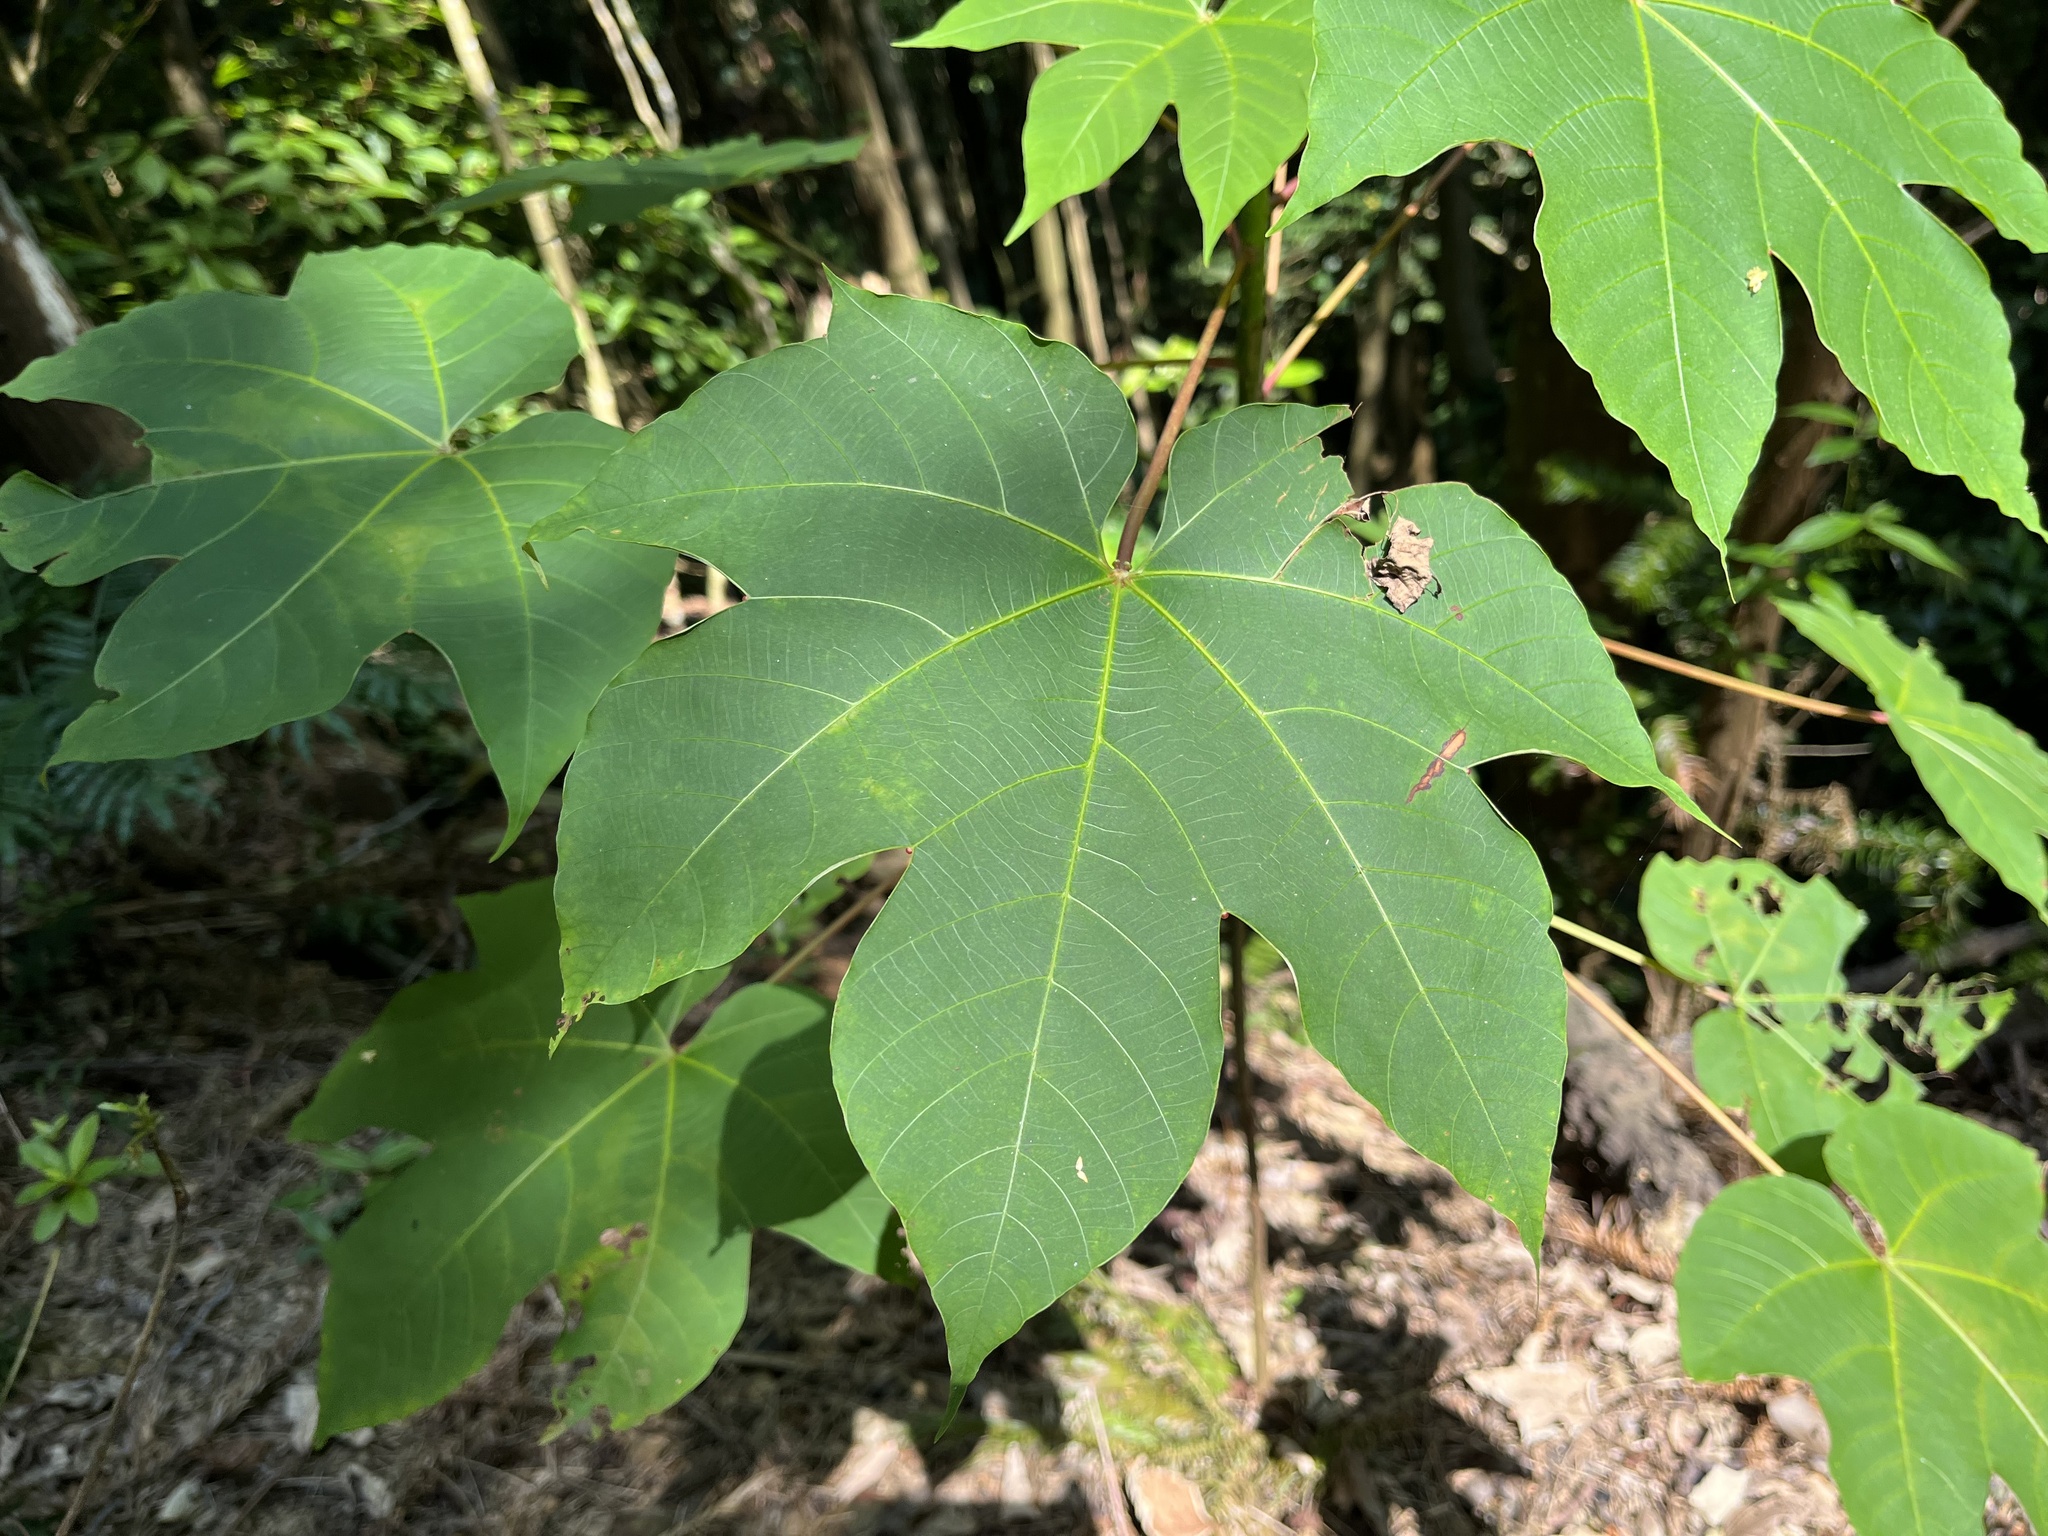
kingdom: Plantae
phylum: Tracheophyta
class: Magnoliopsida
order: Malpighiales
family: Euphorbiaceae
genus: Vernicia
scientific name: Vernicia montana
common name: Mu oil tree
